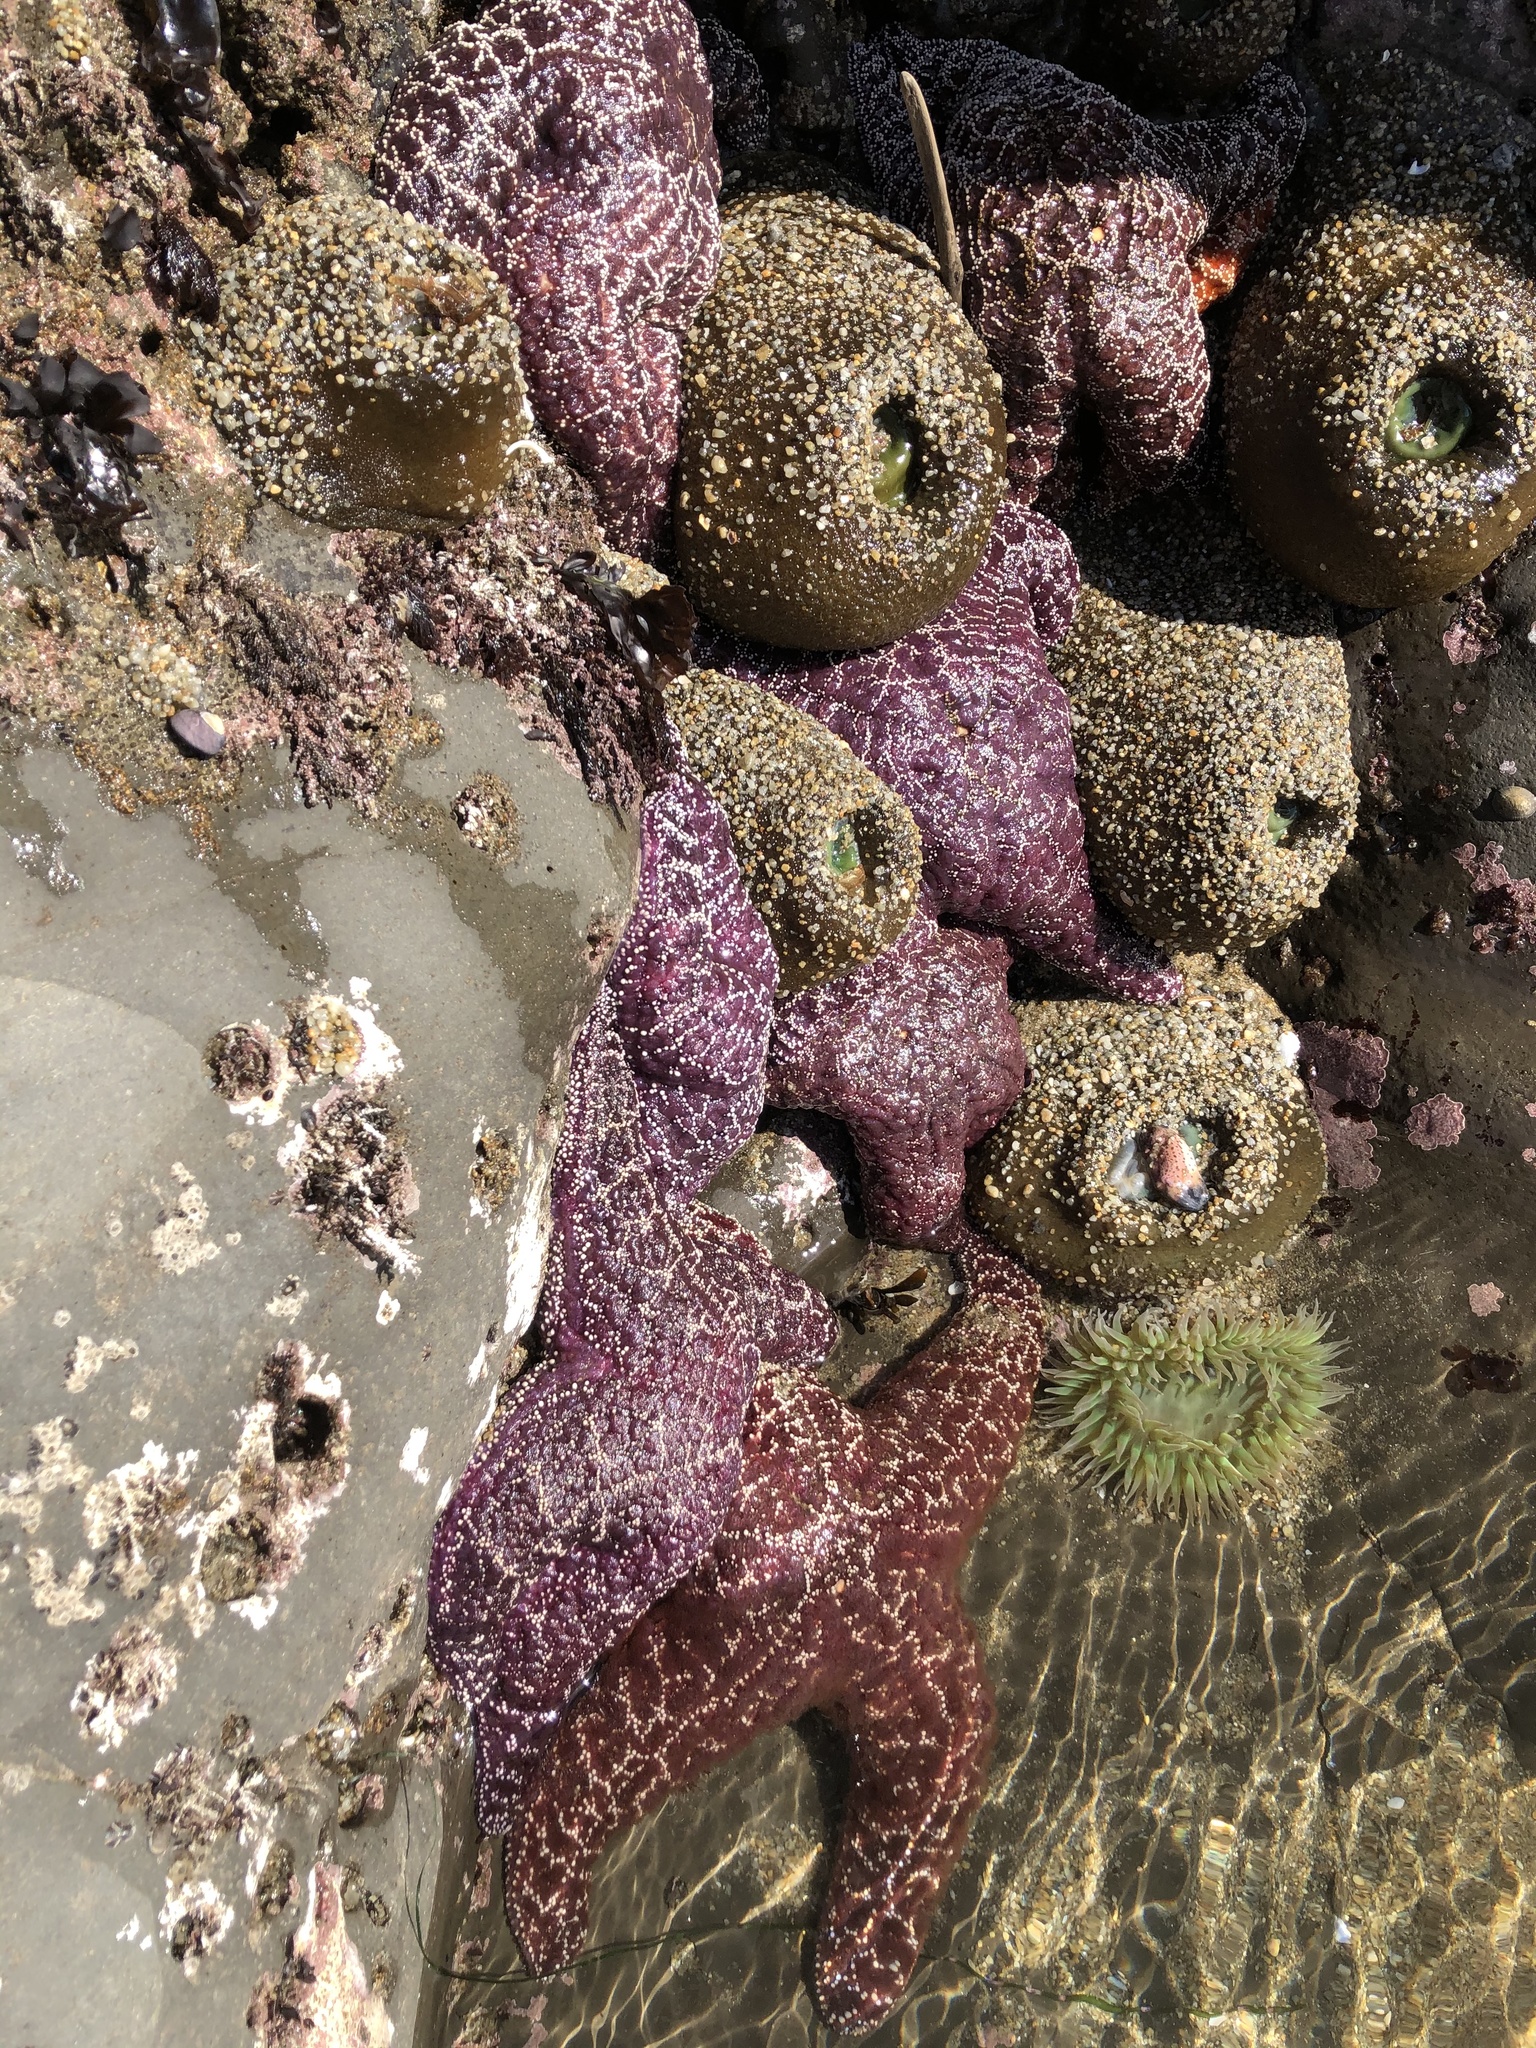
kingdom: Animalia
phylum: Echinodermata
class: Asteroidea
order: Forcipulatida
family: Asteriidae
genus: Pisaster
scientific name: Pisaster ochraceus
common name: Ochre stars
